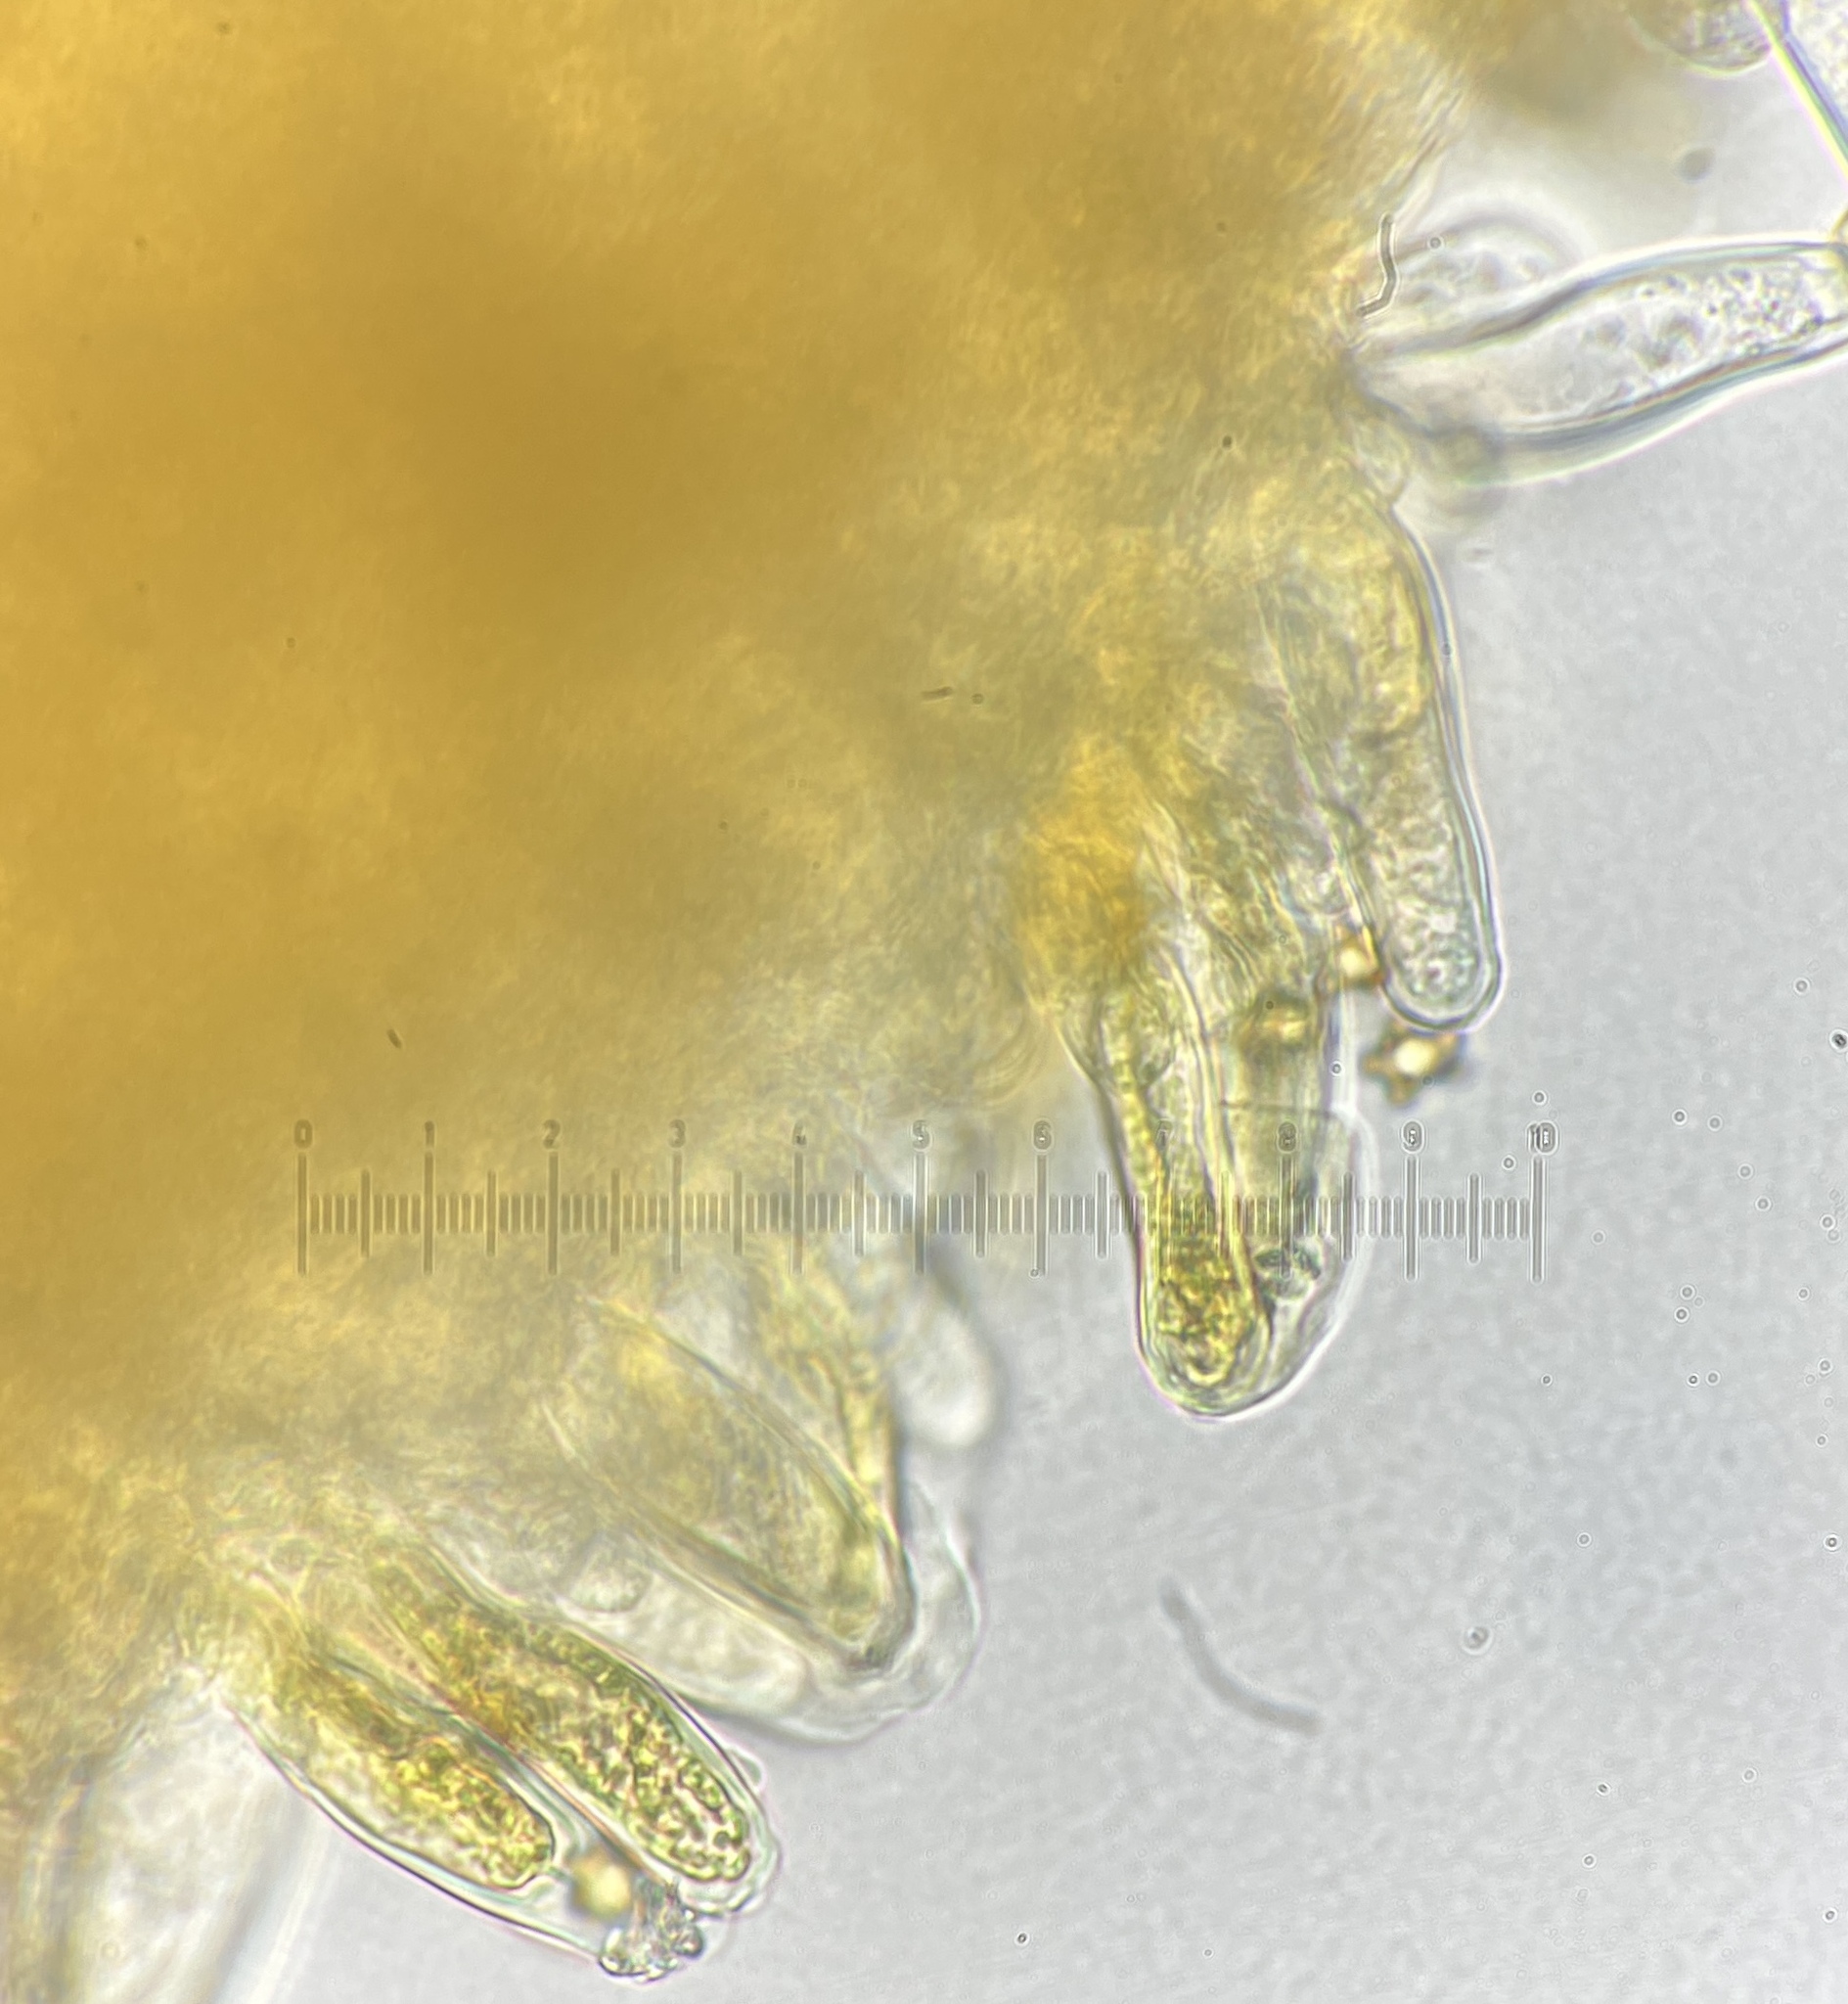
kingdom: Fungi
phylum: Basidiomycota
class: Agaricomycetes
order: Agaricales
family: Inocybaceae
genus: Inocybe
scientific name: Inocybe napipes
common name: Bulbous fibrecap
